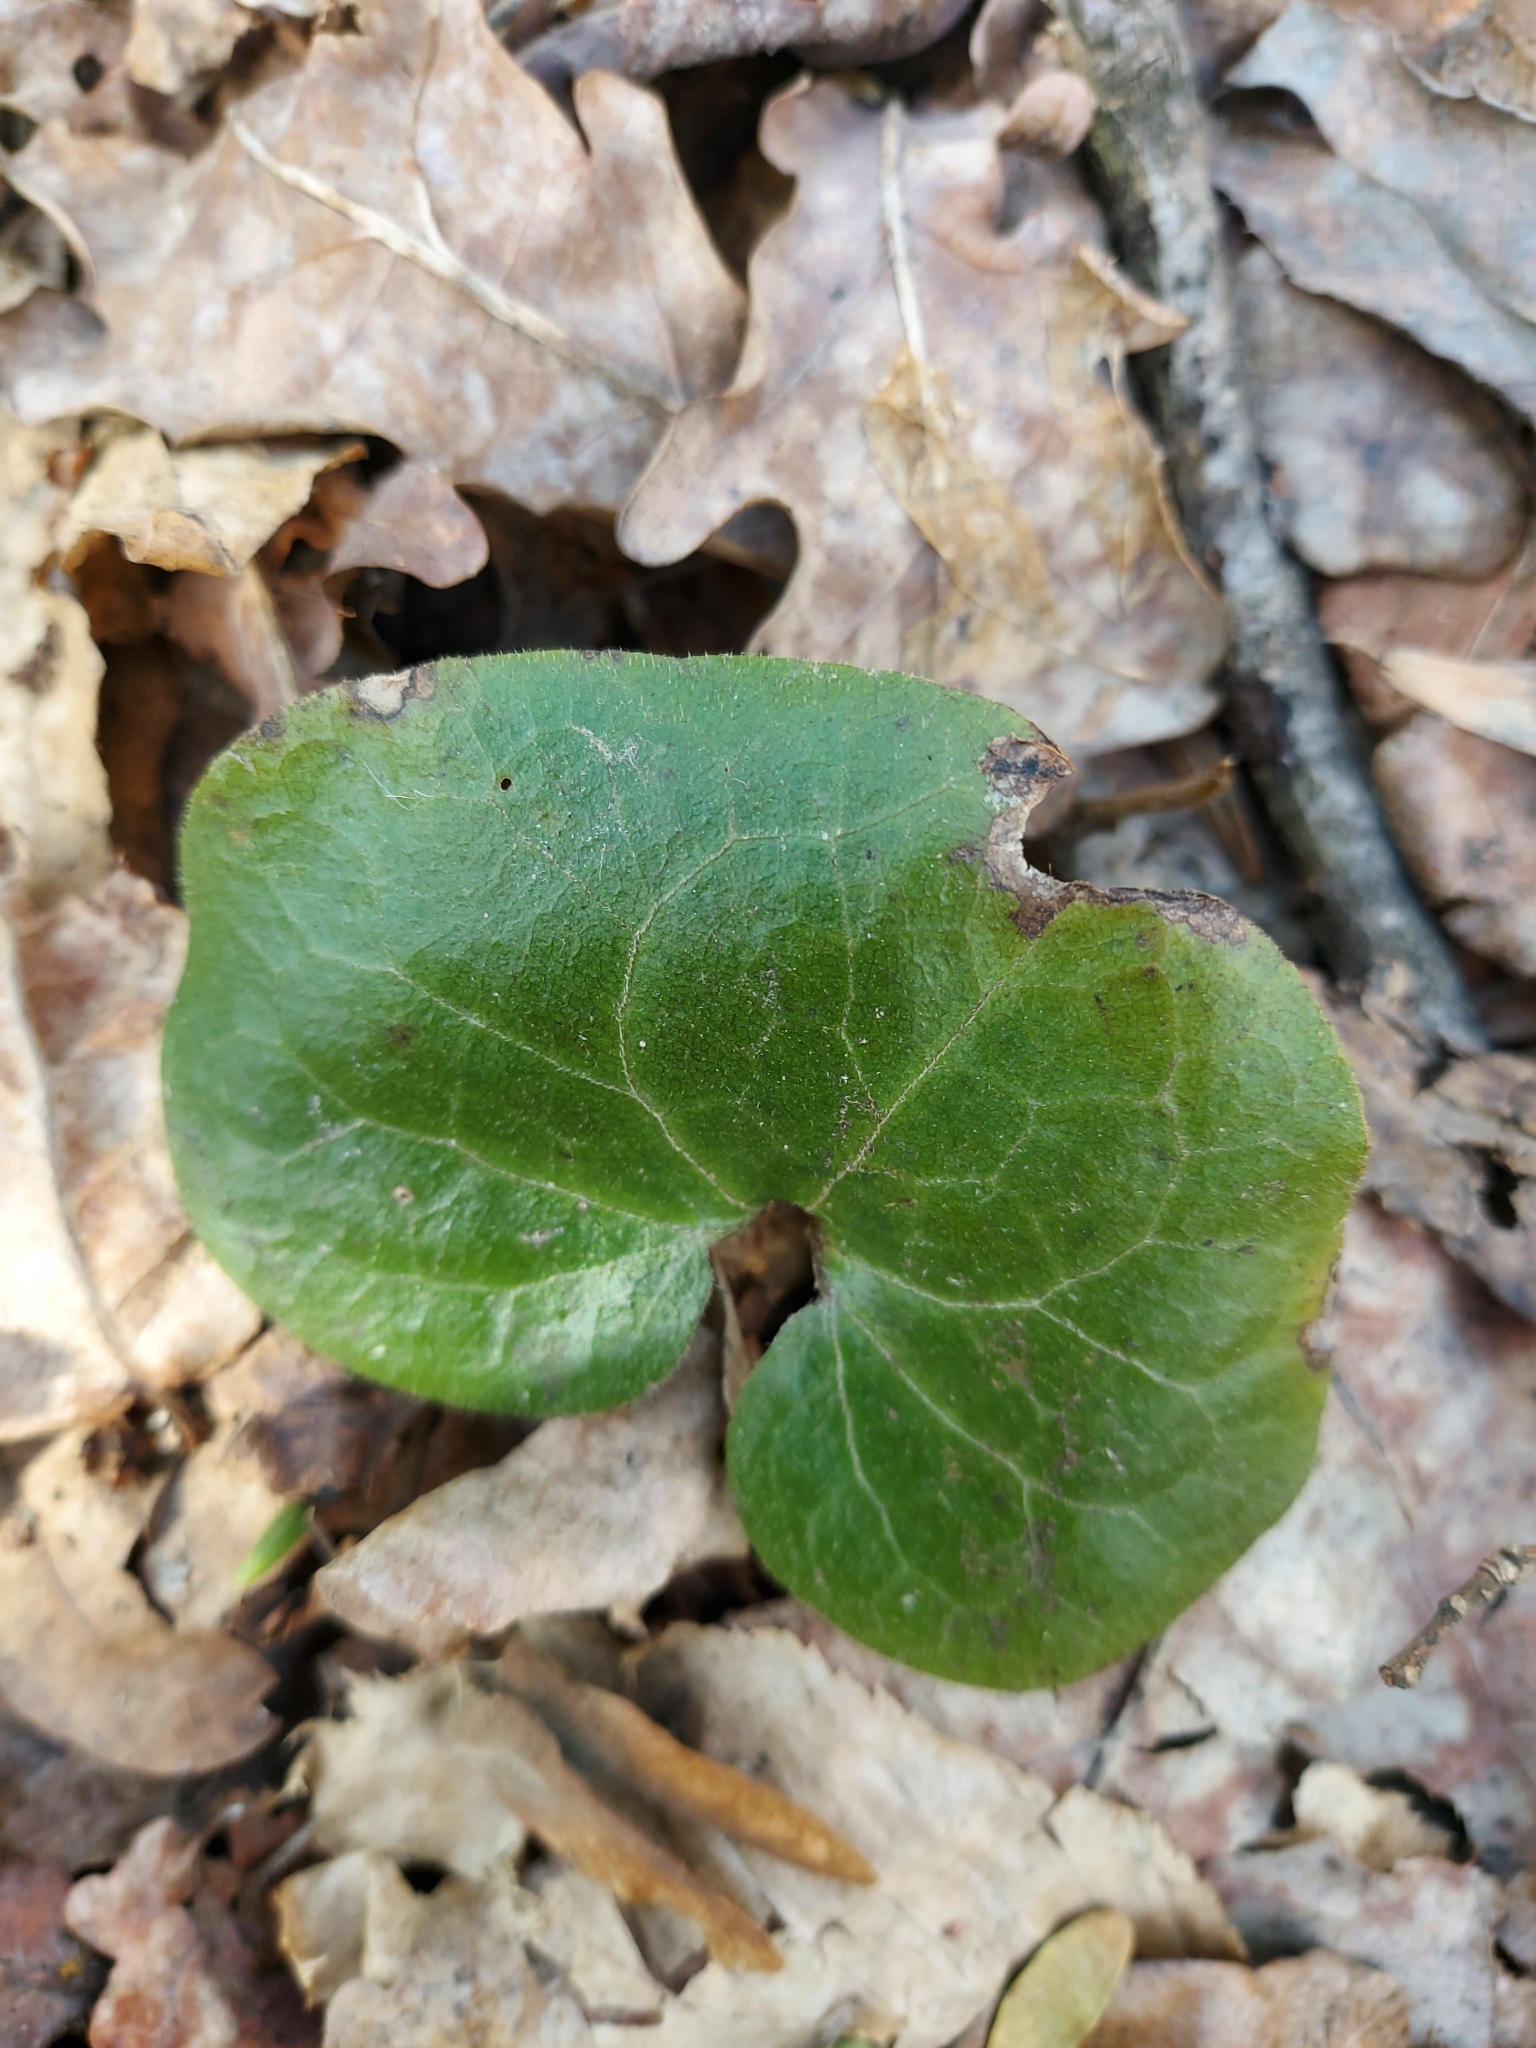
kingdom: Plantae
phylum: Tracheophyta
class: Magnoliopsida
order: Piperales
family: Aristolochiaceae
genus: Asarum
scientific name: Asarum europaeum
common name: Asarabacca
